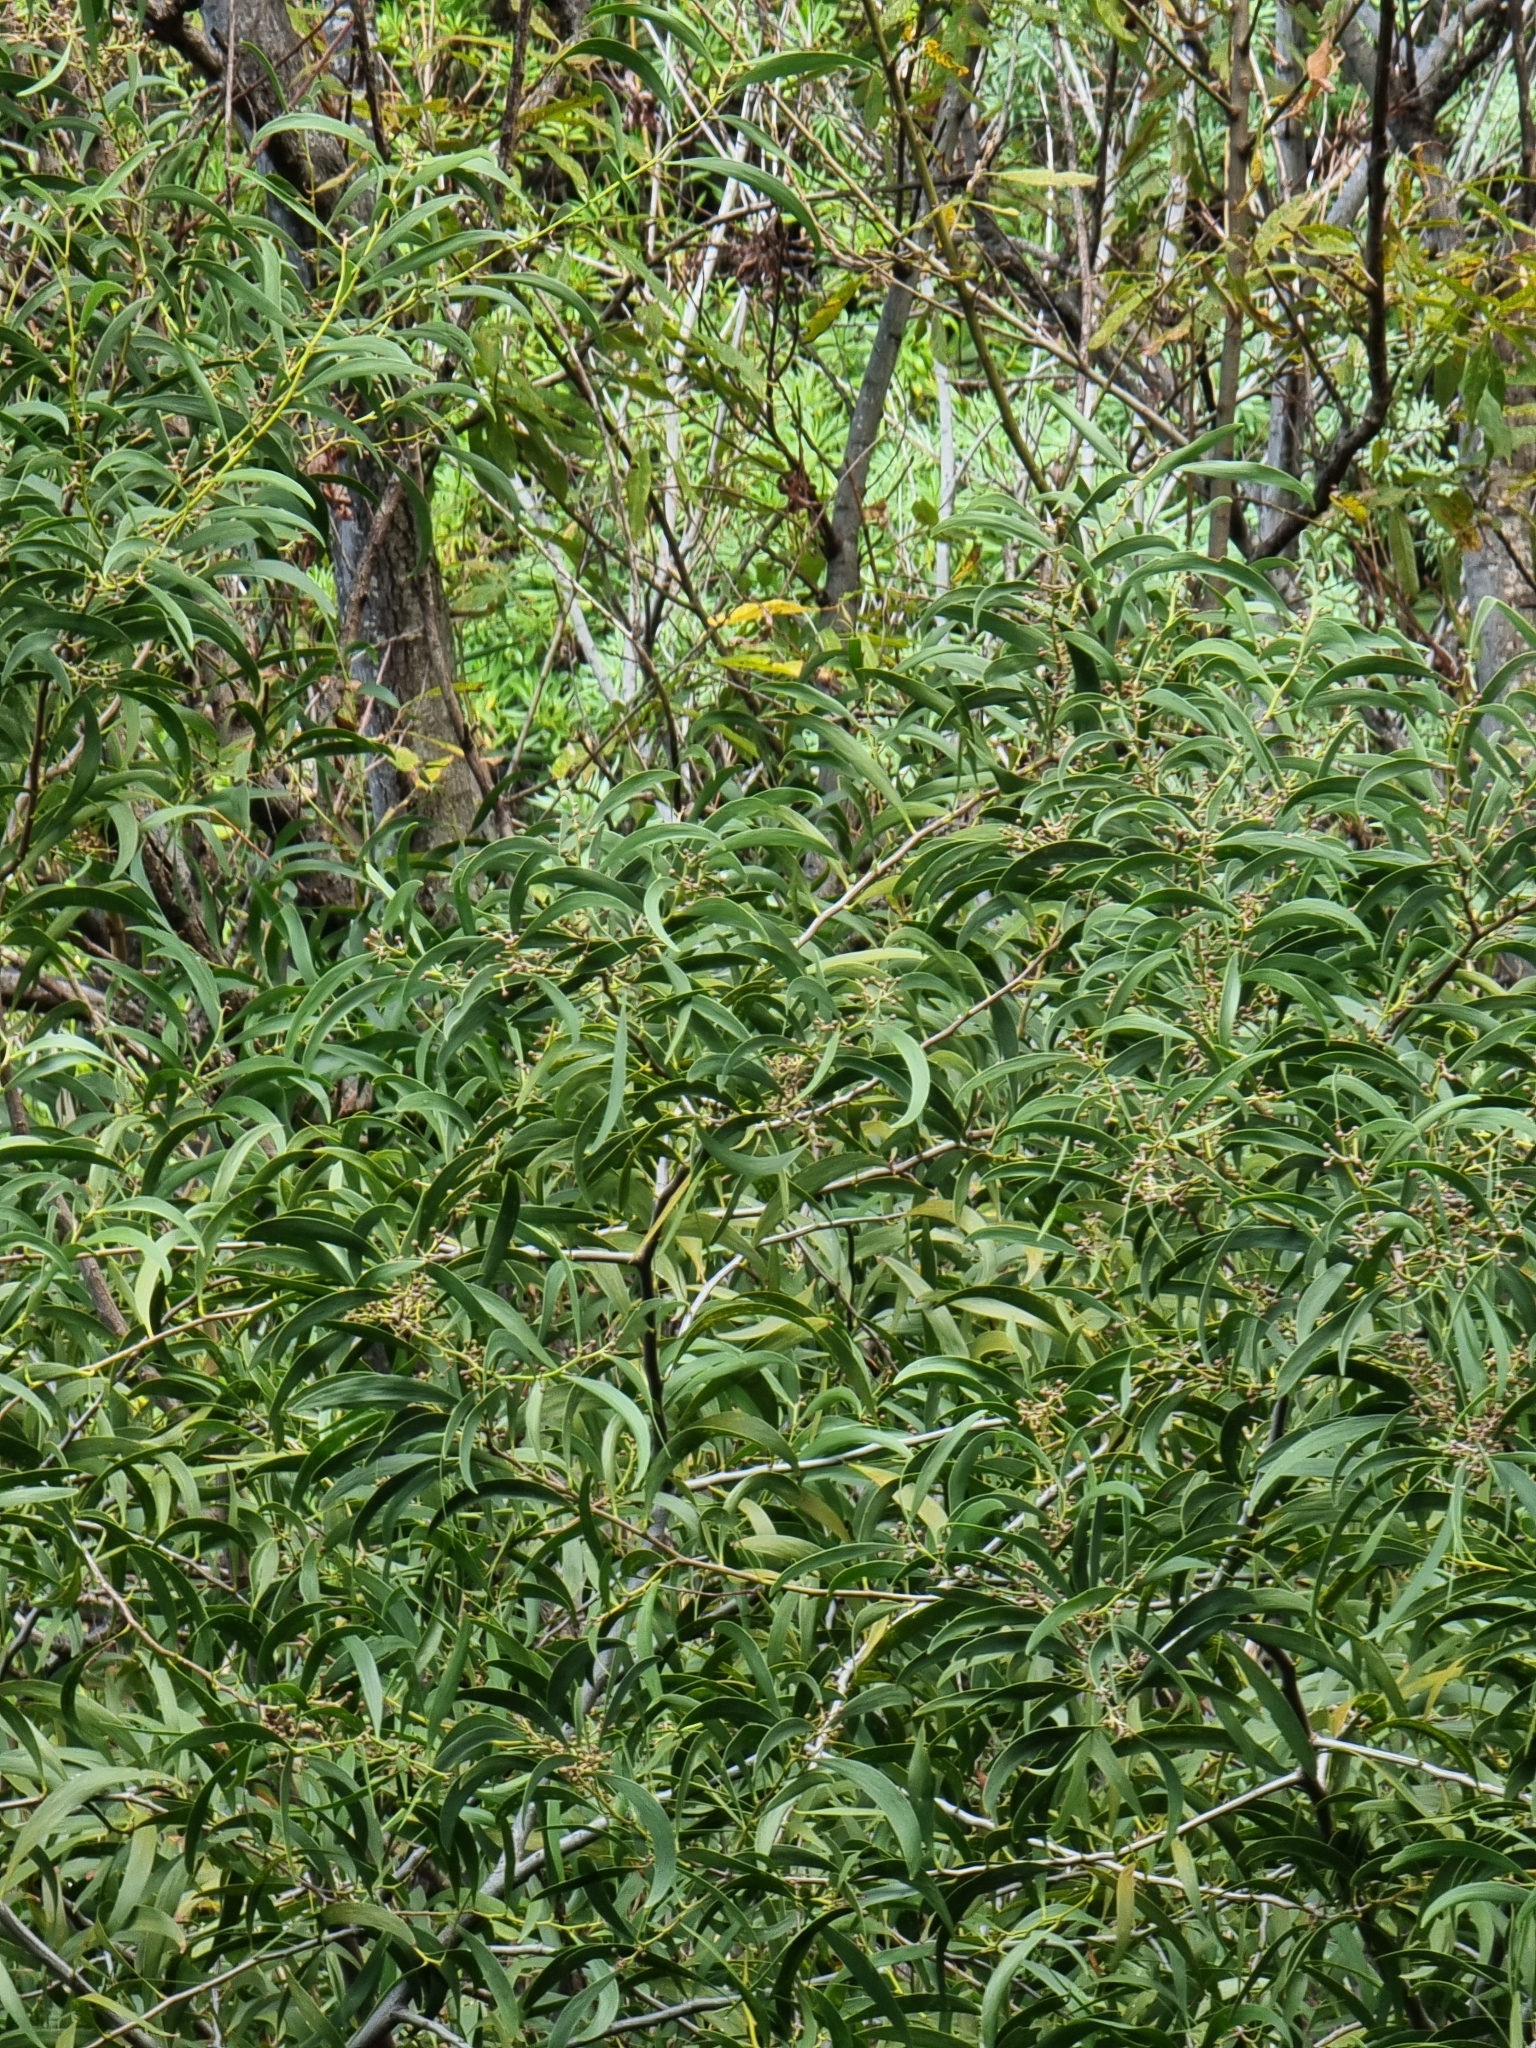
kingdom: Plantae
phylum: Tracheophyta
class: Magnoliopsida
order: Fabales
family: Fabaceae
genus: Acacia
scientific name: Acacia melanoxylon
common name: Blackwood
